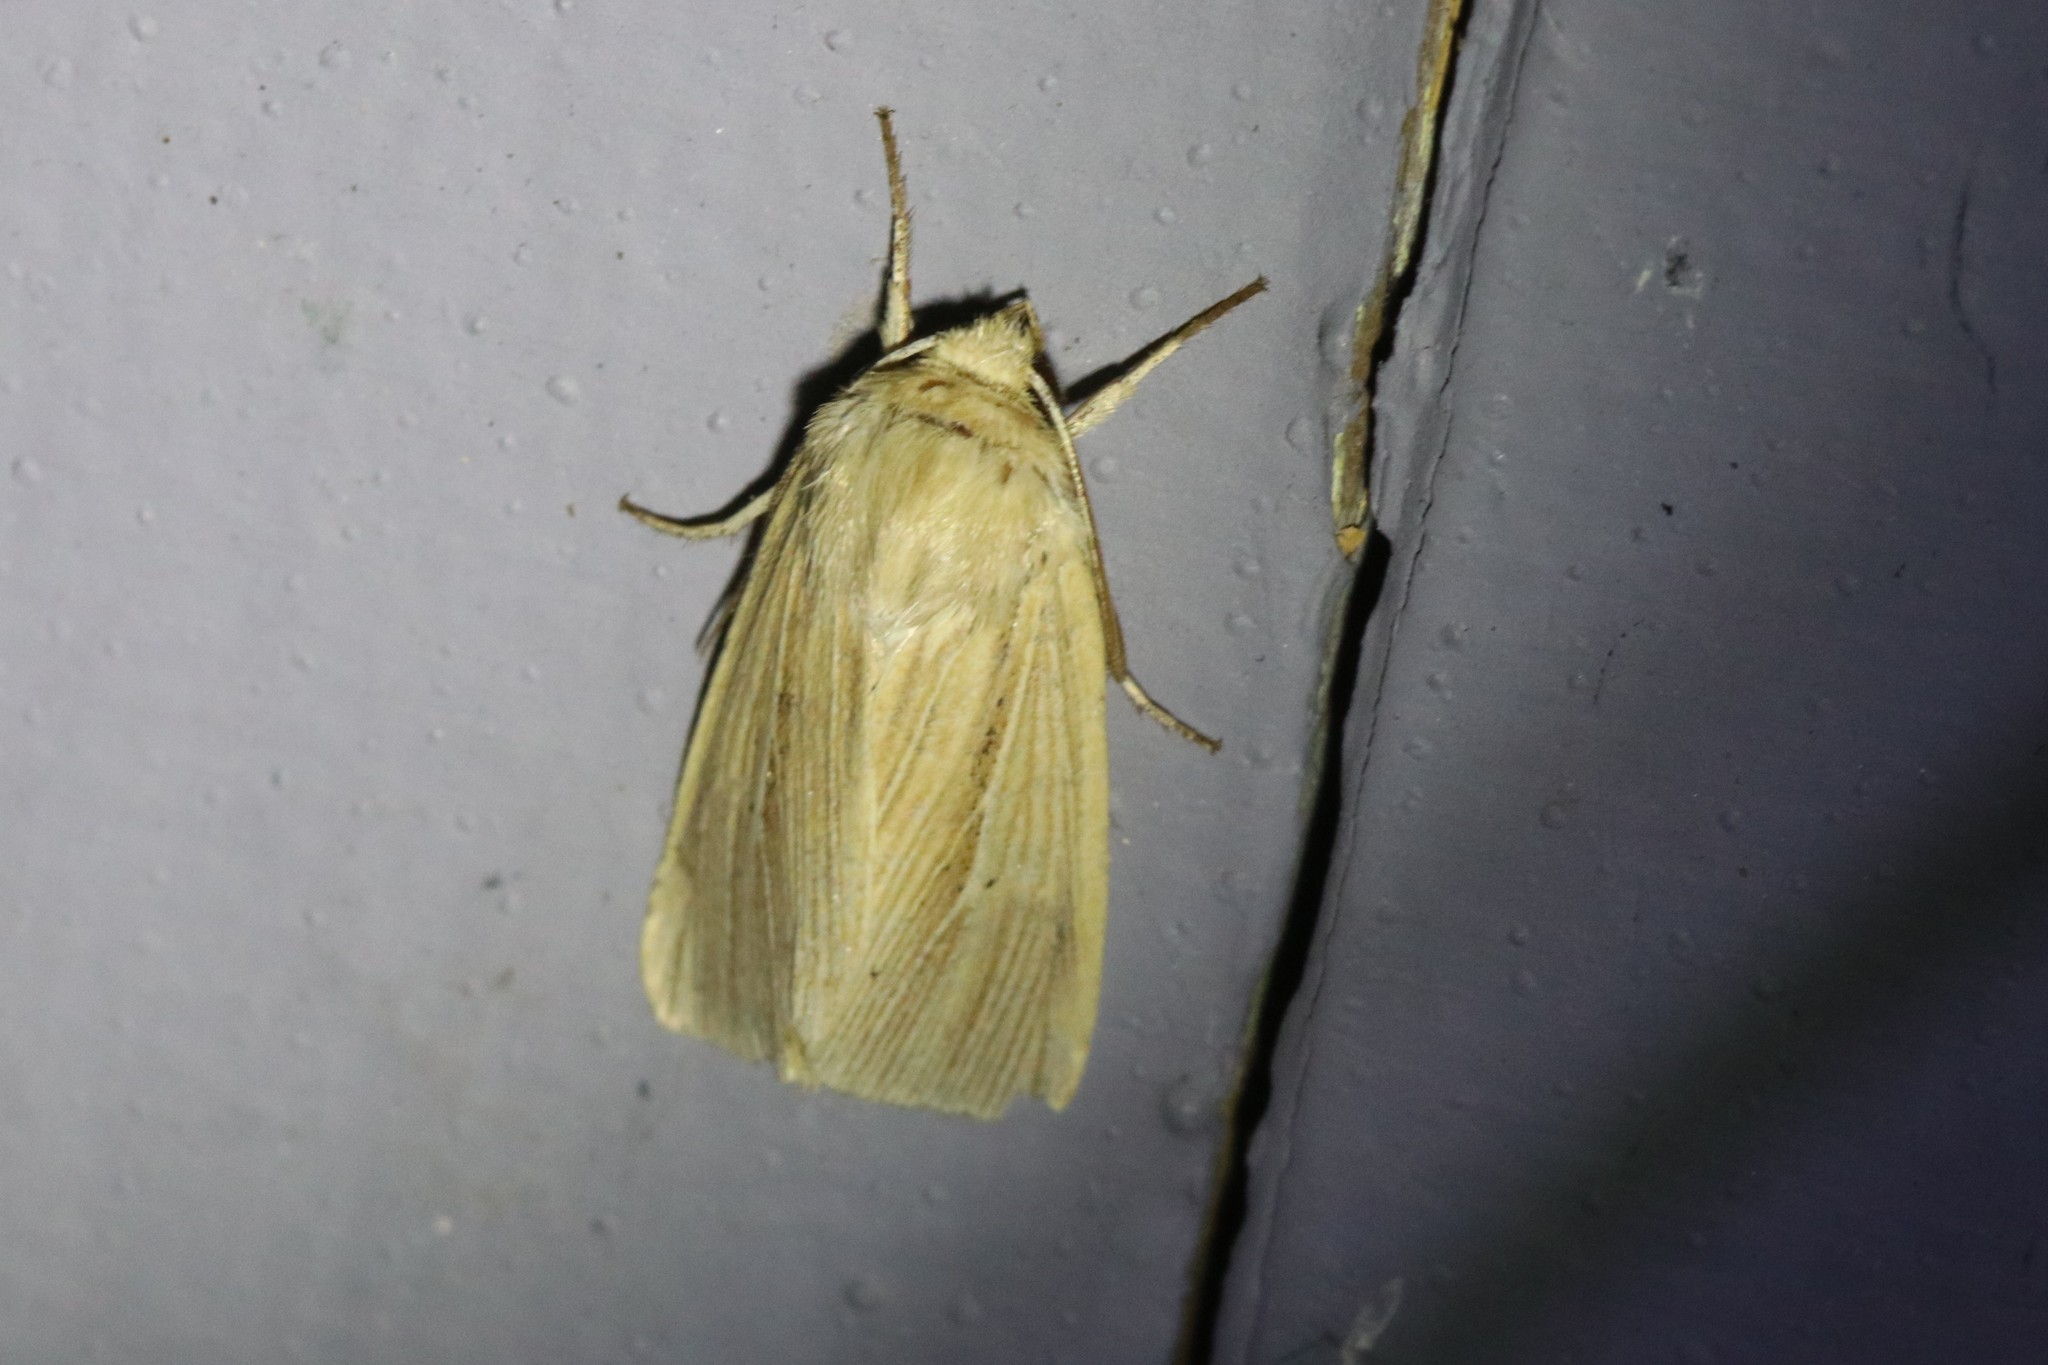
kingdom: Animalia
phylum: Arthropoda
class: Insecta
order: Lepidoptera
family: Noctuidae
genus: Mythimna
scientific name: Mythimna oxygala
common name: Lesser wainscot
